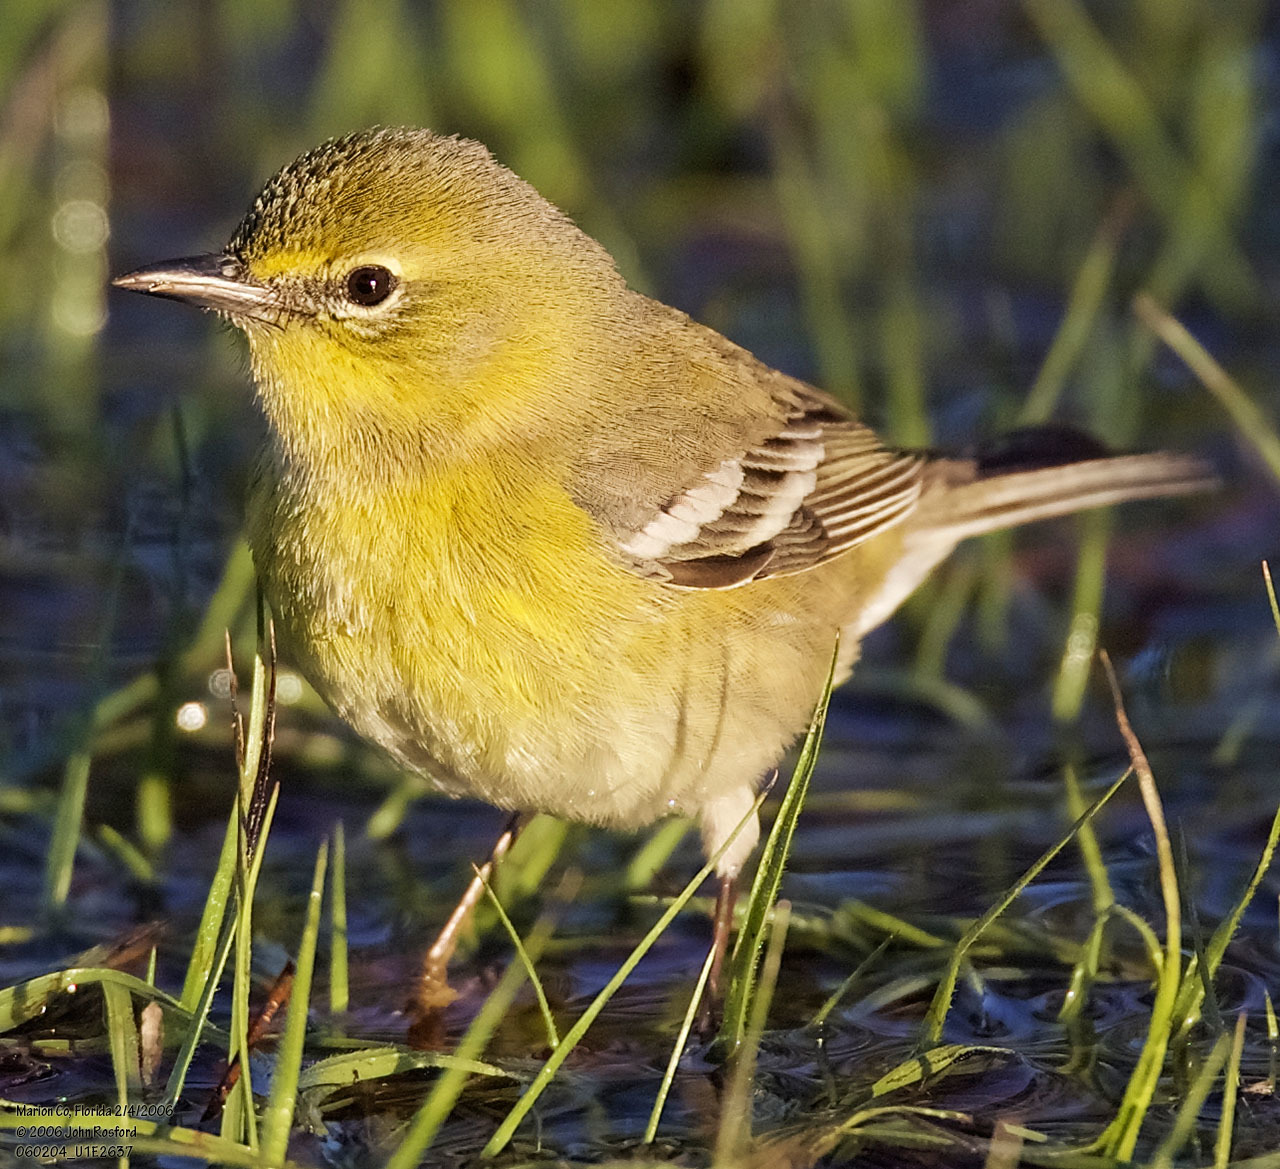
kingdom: Animalia
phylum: Chordata
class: Aves
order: Passeriformes
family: Parulidae
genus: Setophaga
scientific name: Setophaga pinus
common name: Pine warbler
